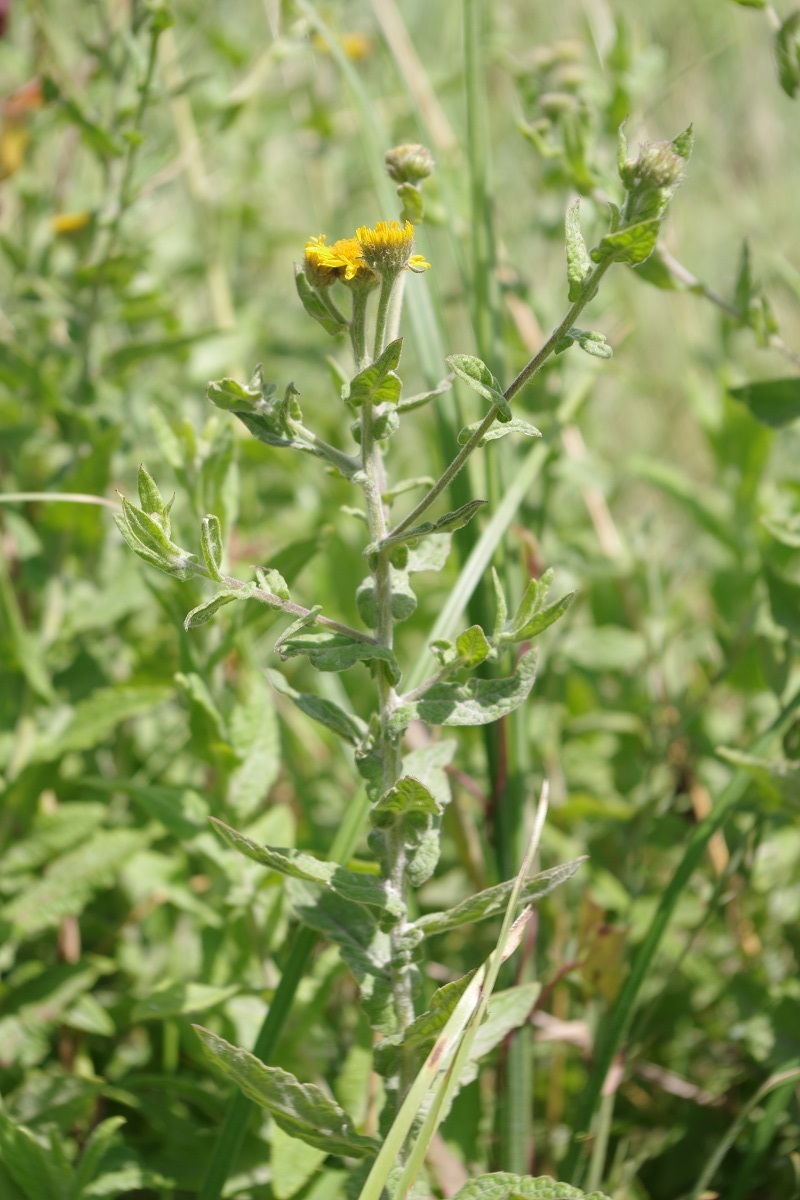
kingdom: Plantae
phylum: Tracheophyta
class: Magnoliopsida
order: Asterales
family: Asteraceae
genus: Pulicaria
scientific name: Pulicaria dysenterica
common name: Common fleabane
